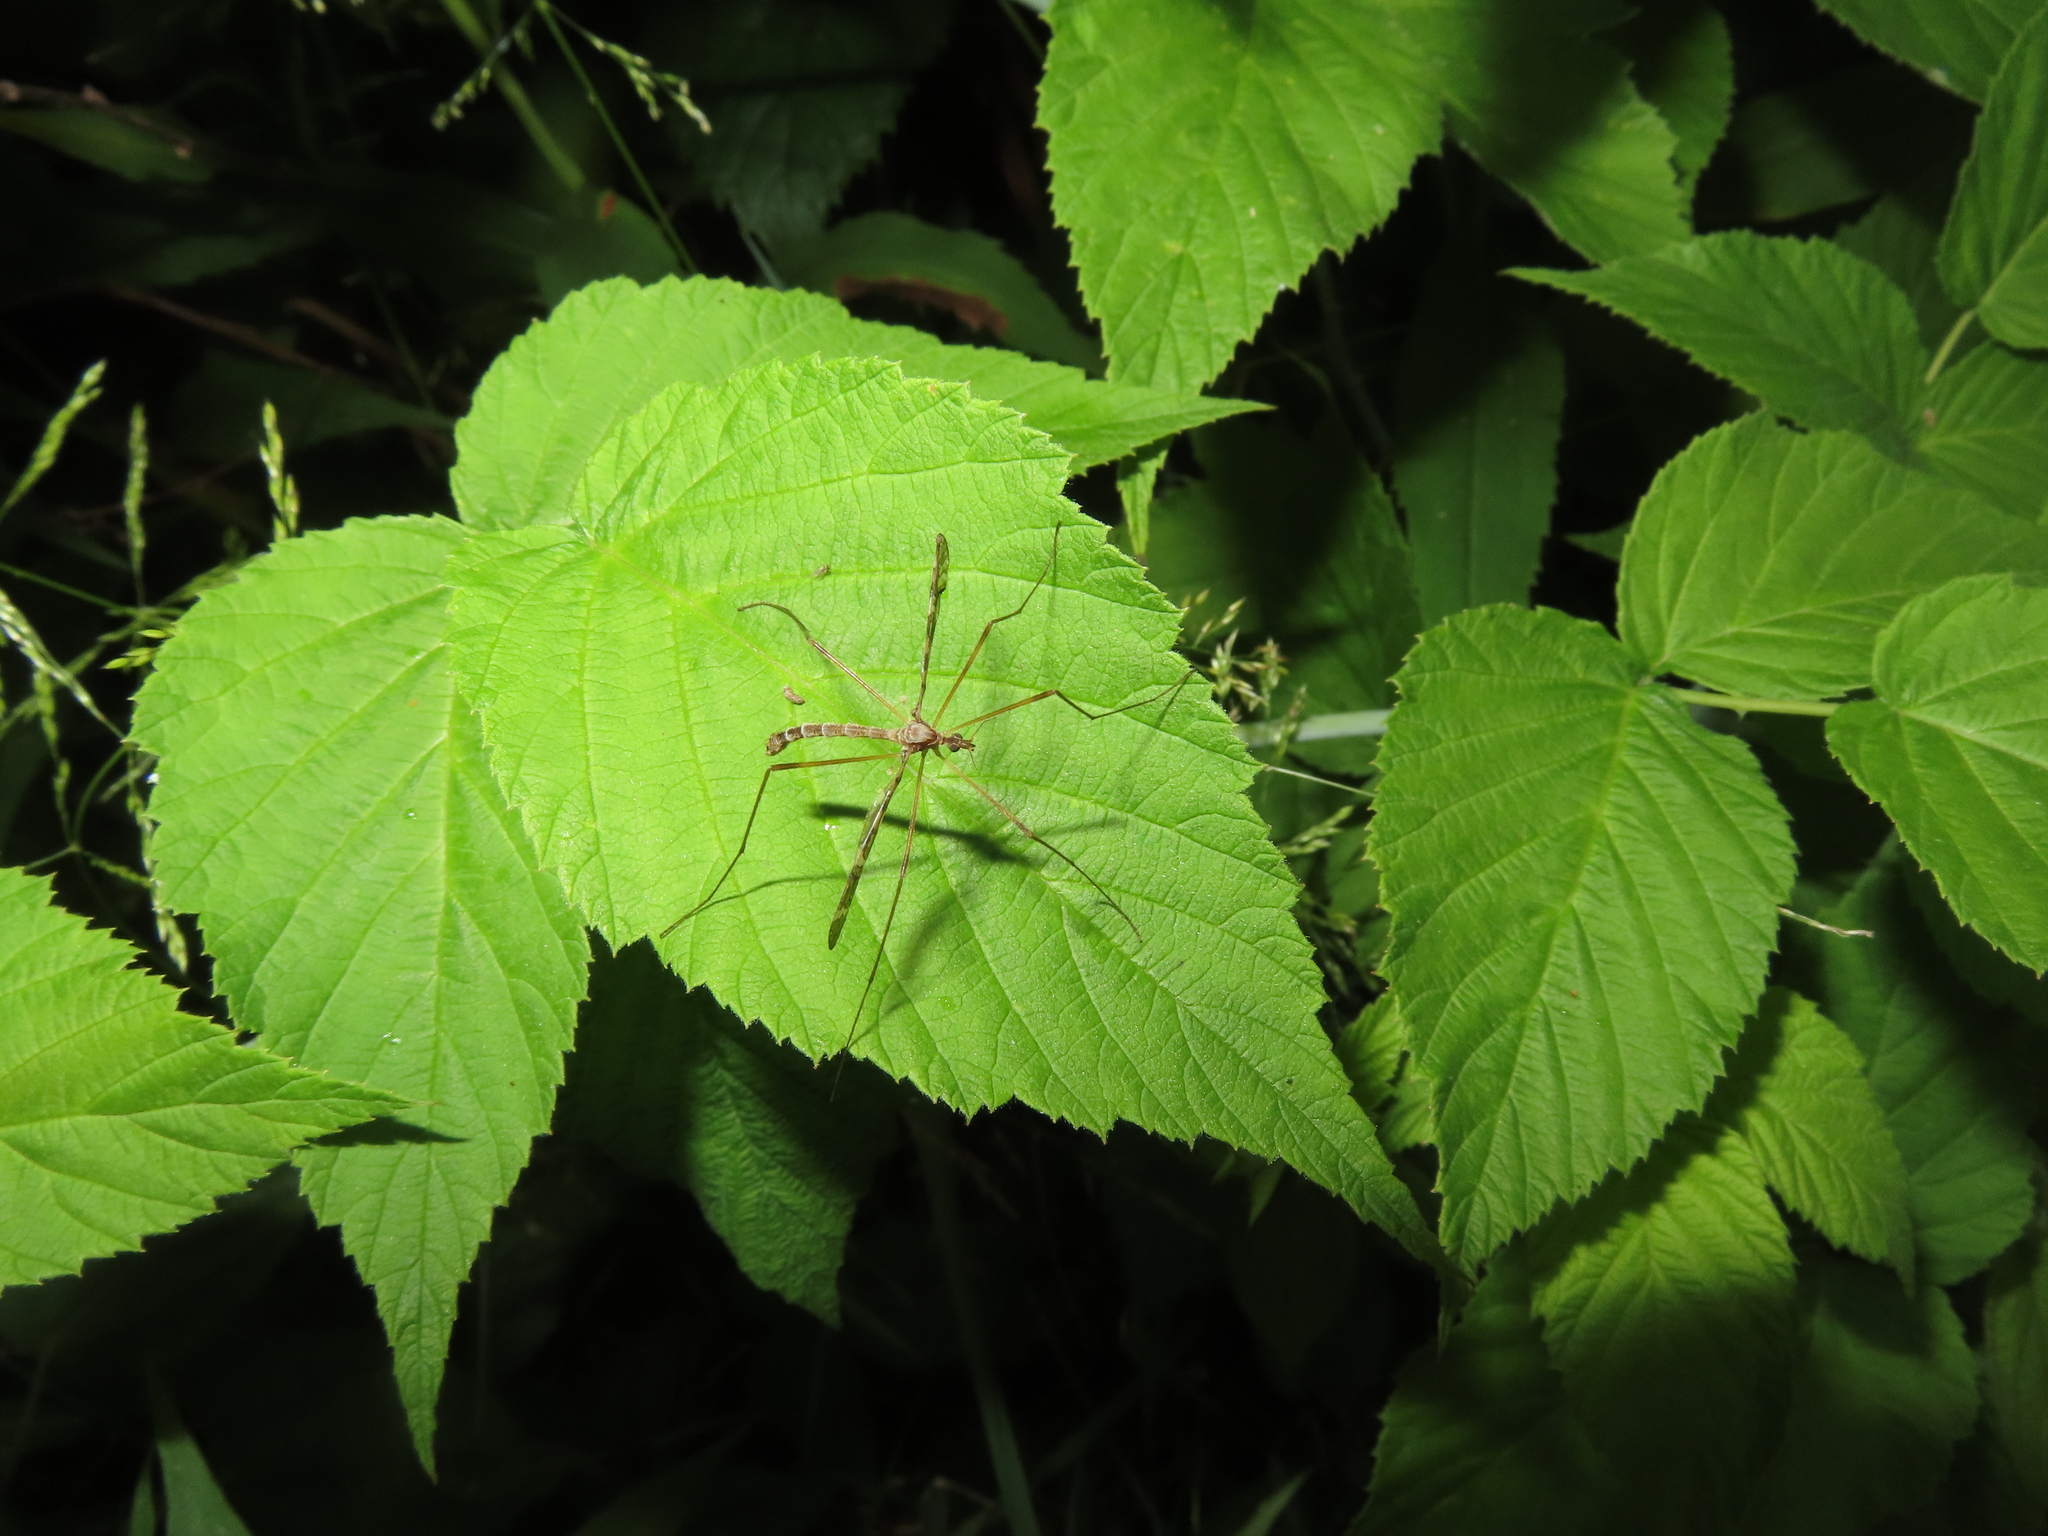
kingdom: Animalia
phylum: Arthropoda
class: Insecta
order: Diptera
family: Limoniidae
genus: Epiphragma
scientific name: Epiphragma fasciapenne
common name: Band-winged crane fly
